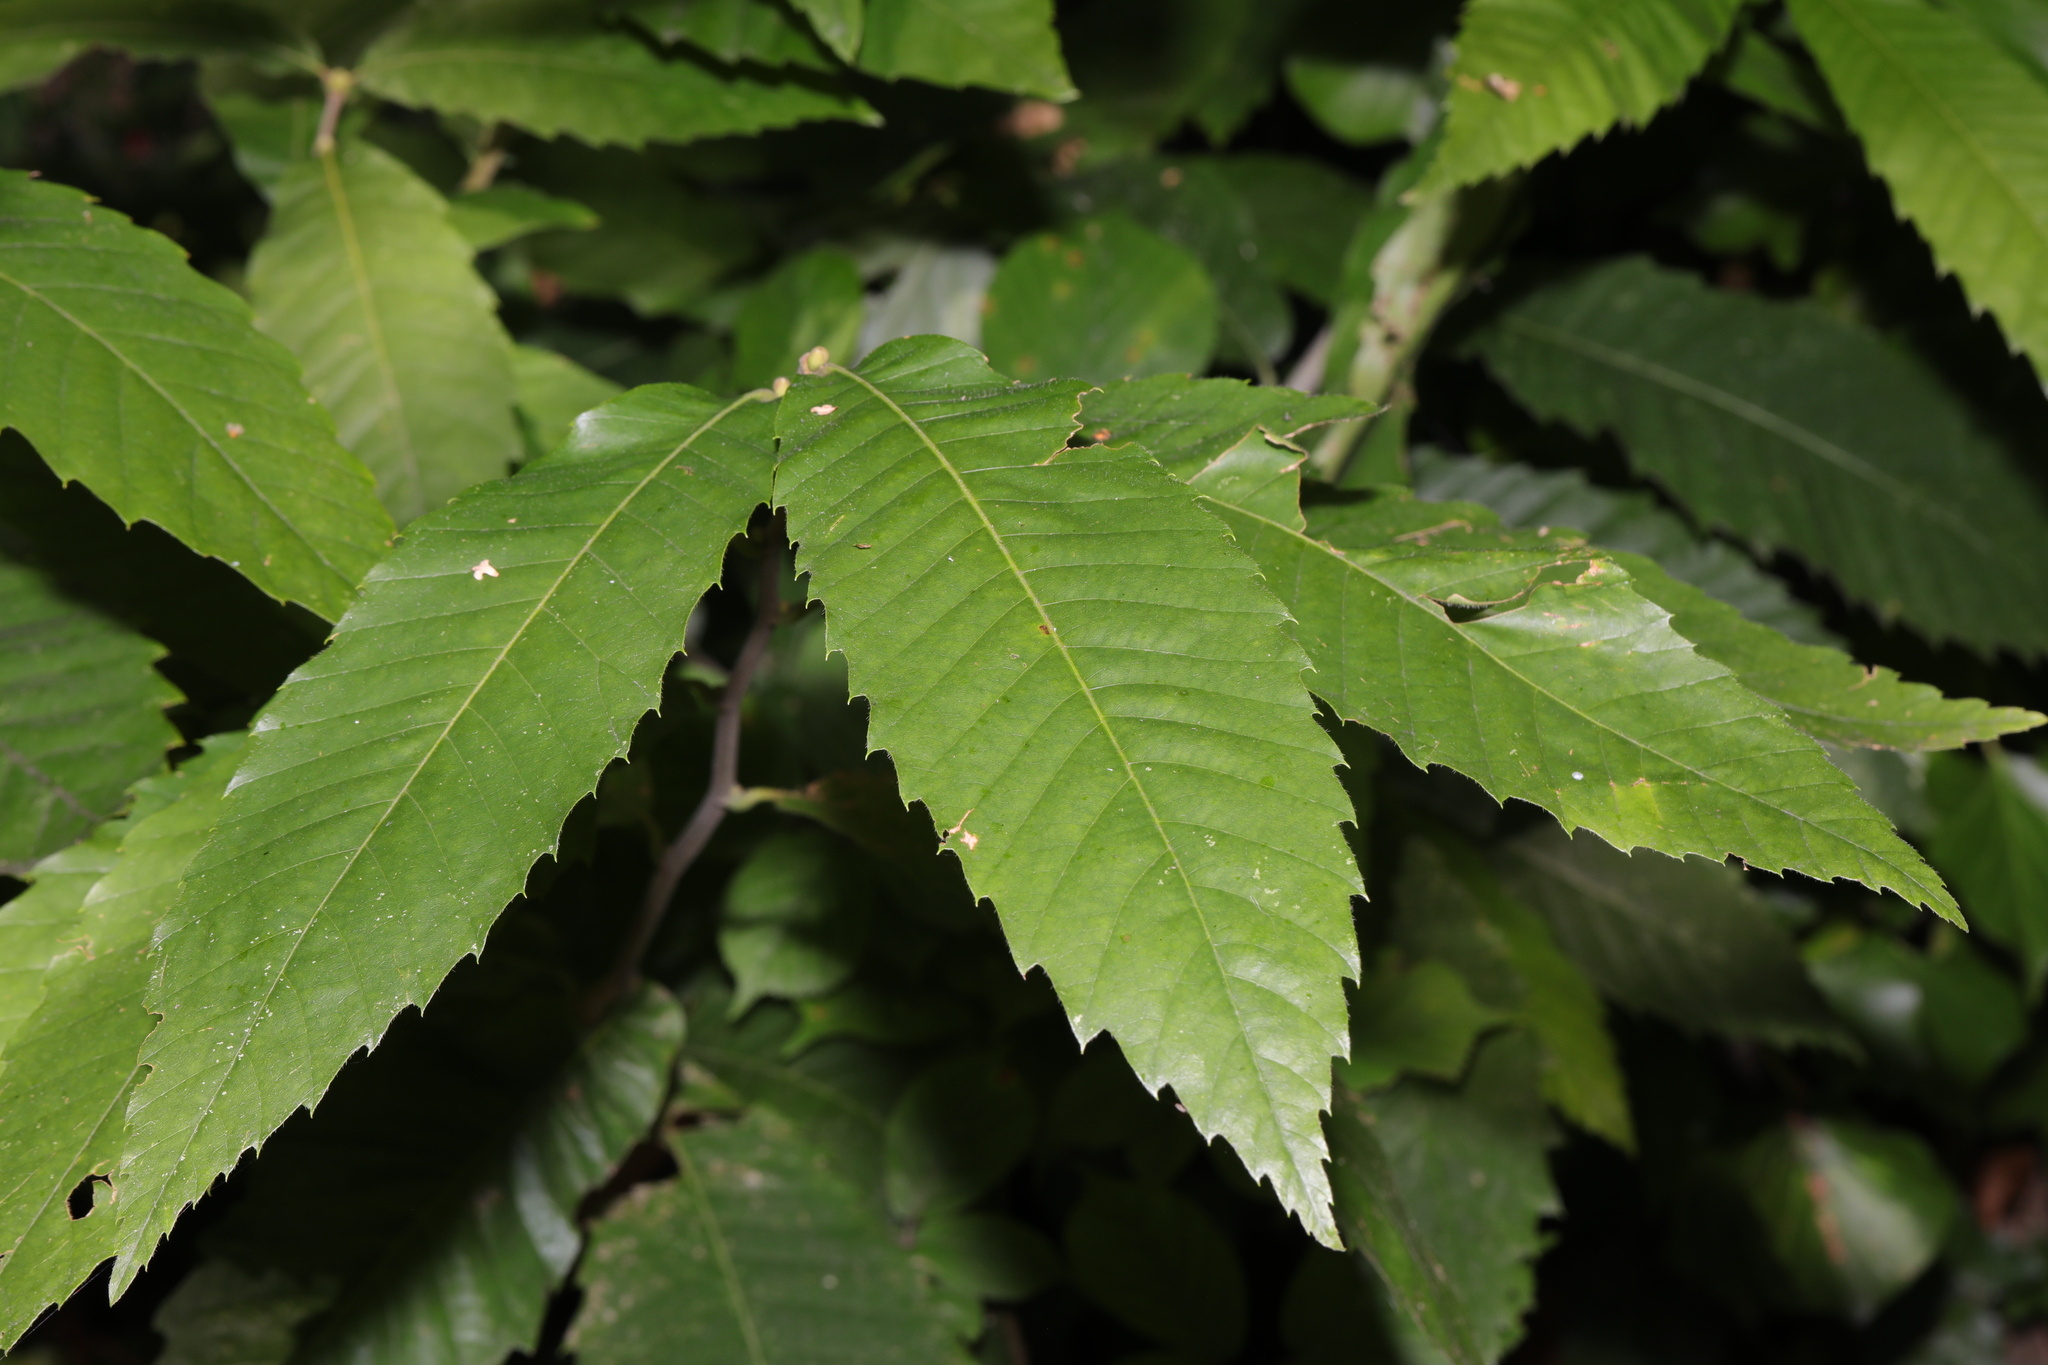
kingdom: Plantae
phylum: Tracheophyta
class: Magnoliopsida
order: Fagales
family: Fagaceae
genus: Castanea
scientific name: Castanea sativa
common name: Sweet chestnut
